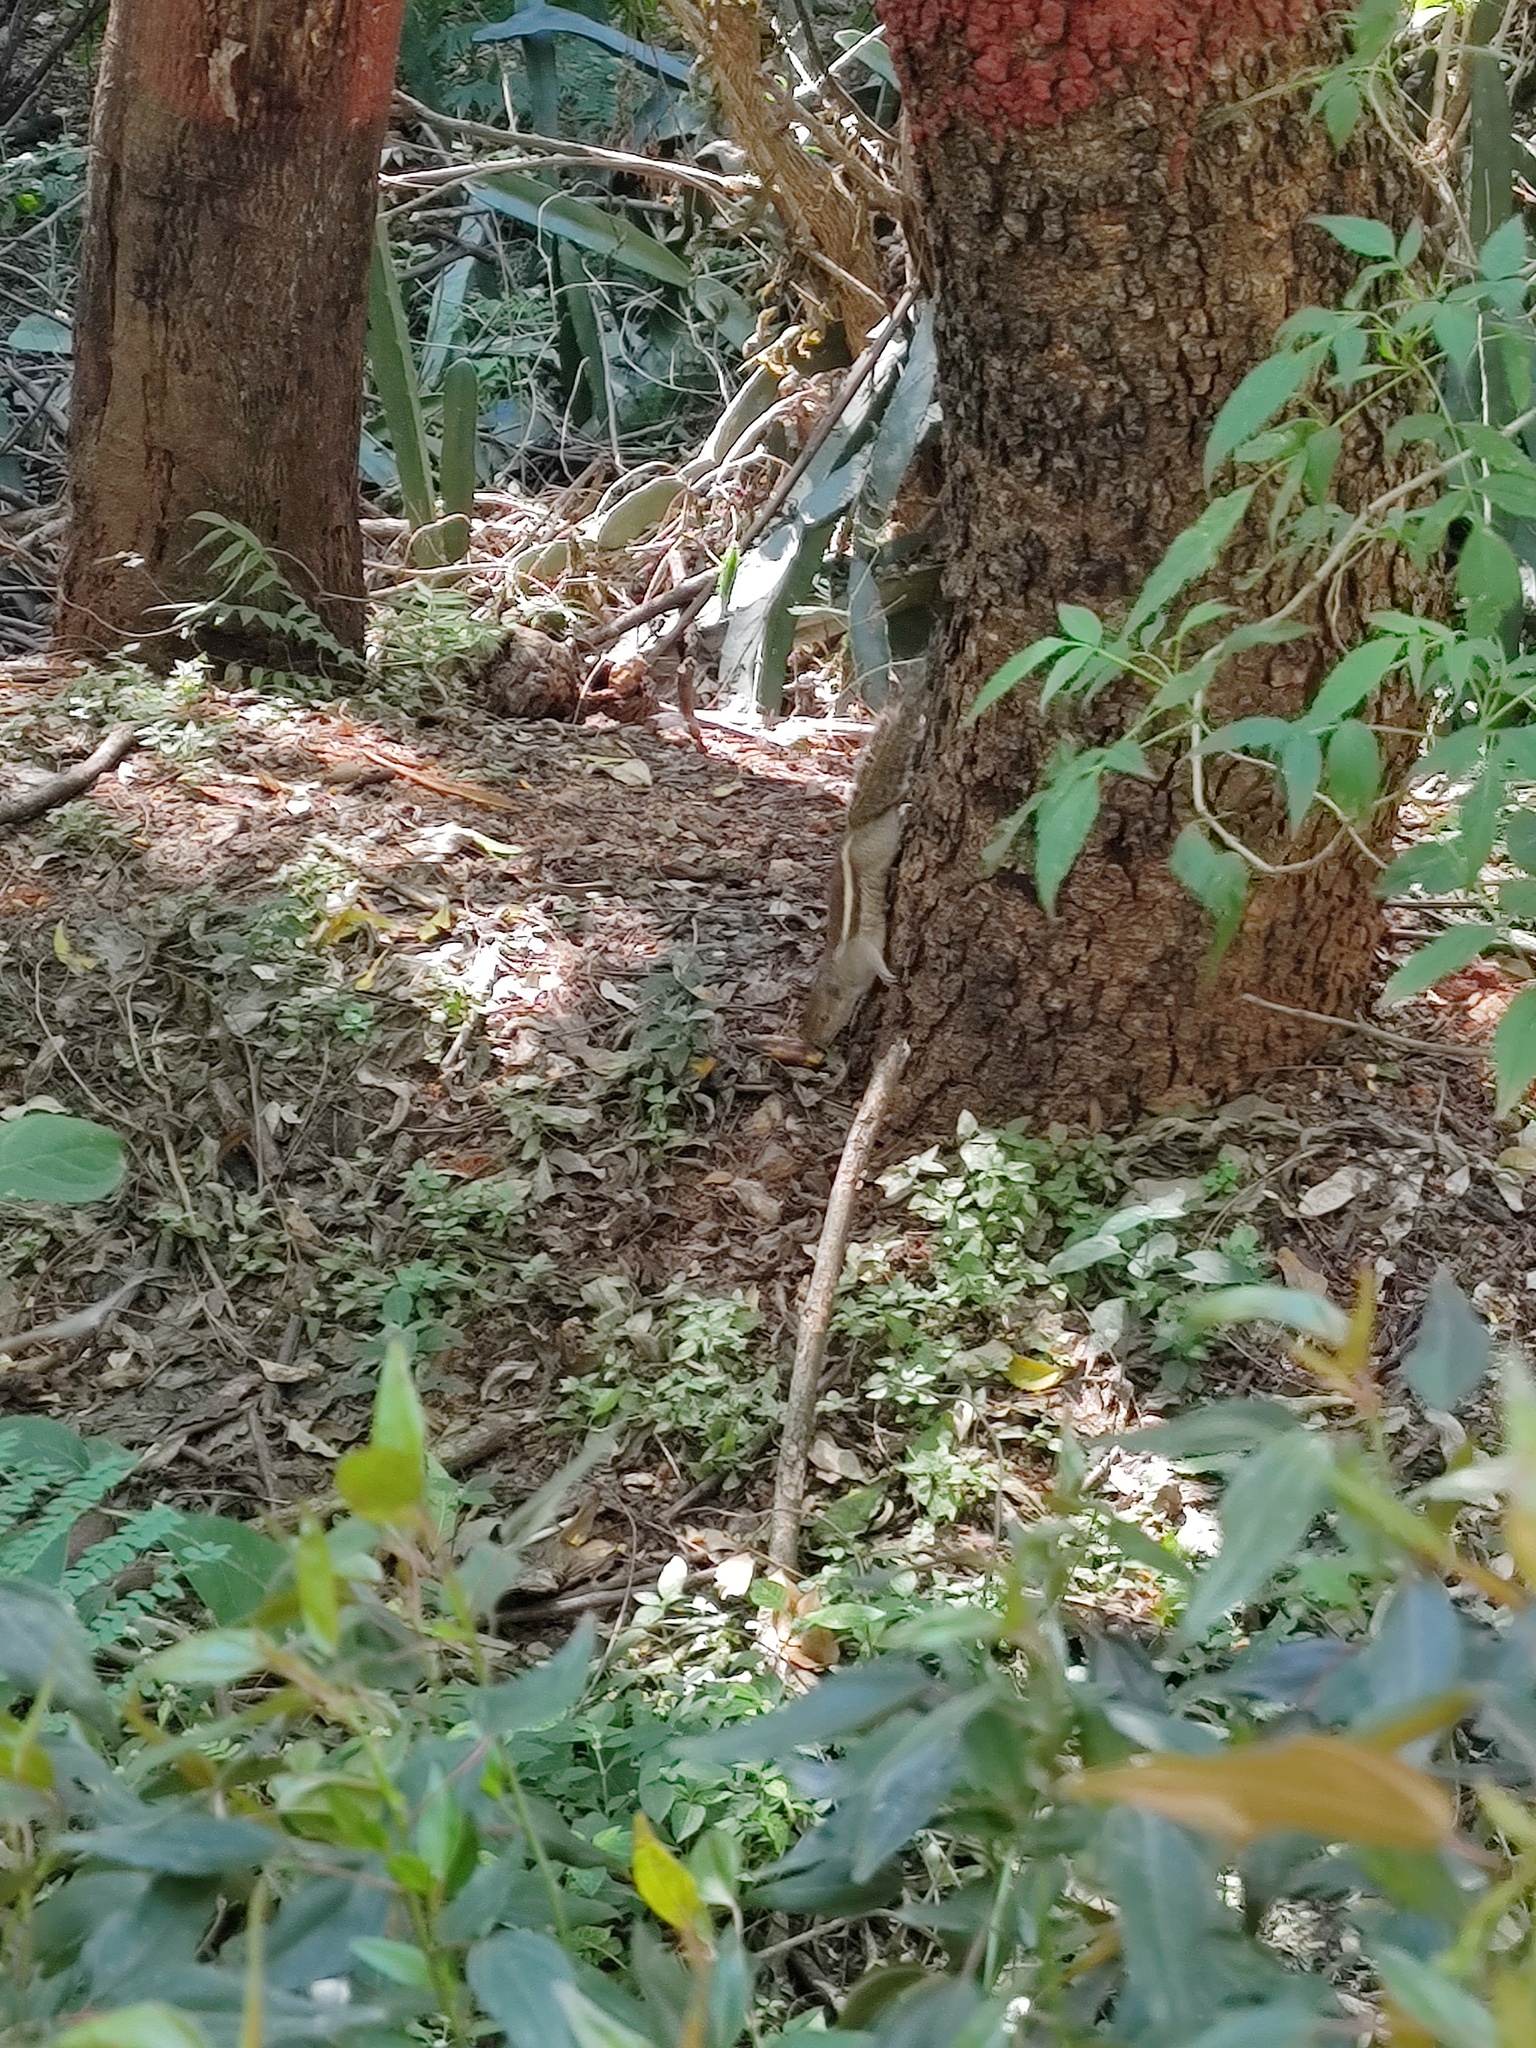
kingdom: Animalia
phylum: Chordata
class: Mammalia
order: Rodentia
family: Sciuridae
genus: Funambulus
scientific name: Funambulus palmarum
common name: Indian palm squirrel
